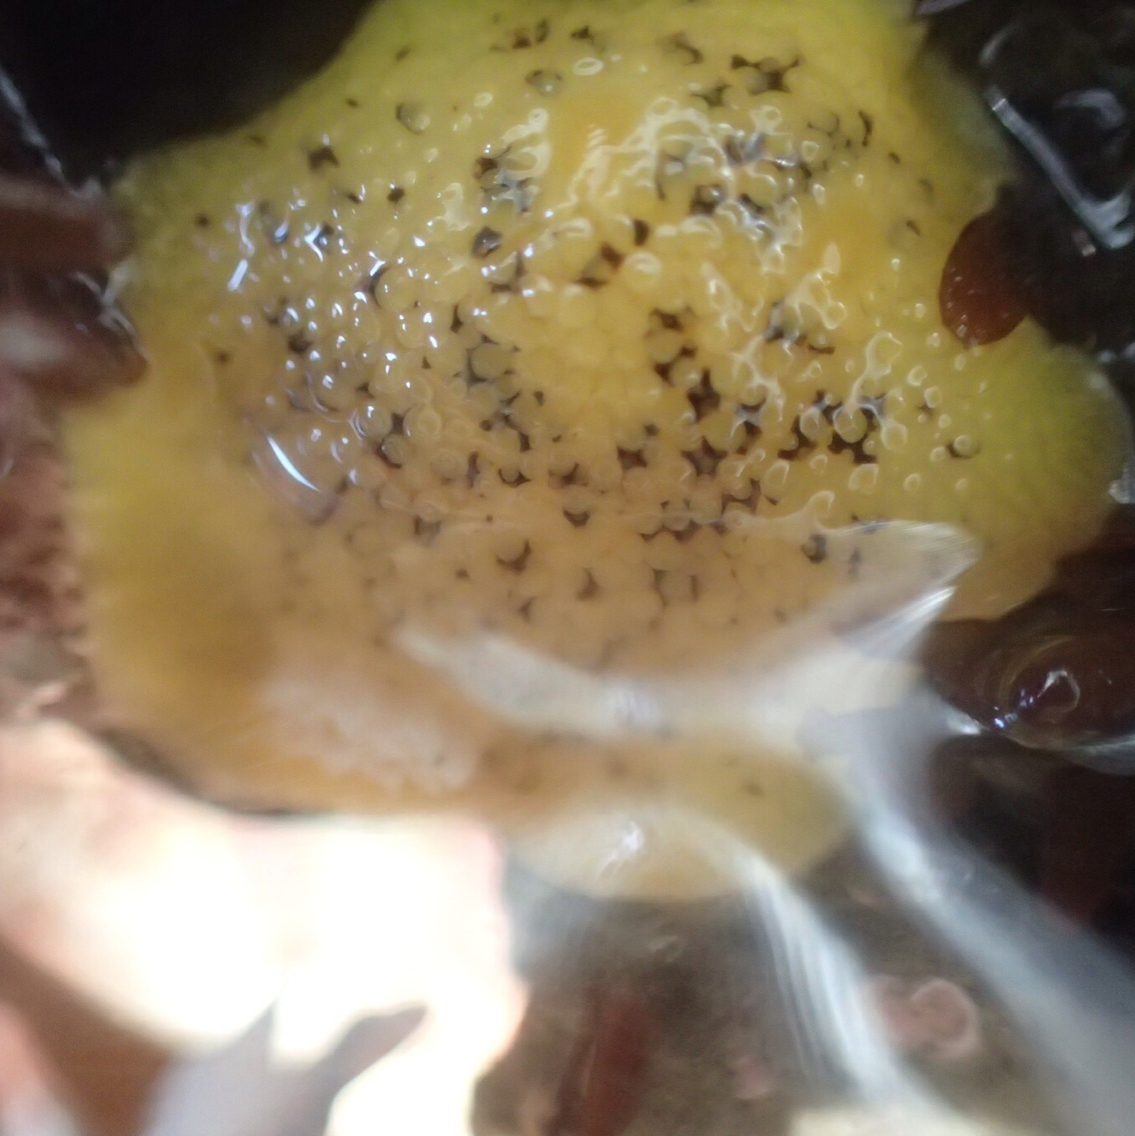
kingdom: Animalia
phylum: Mollusca
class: Gastropoda
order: Nudibranchia
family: Discodorididae
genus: Peltodoris
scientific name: Peltodoris nobilis
